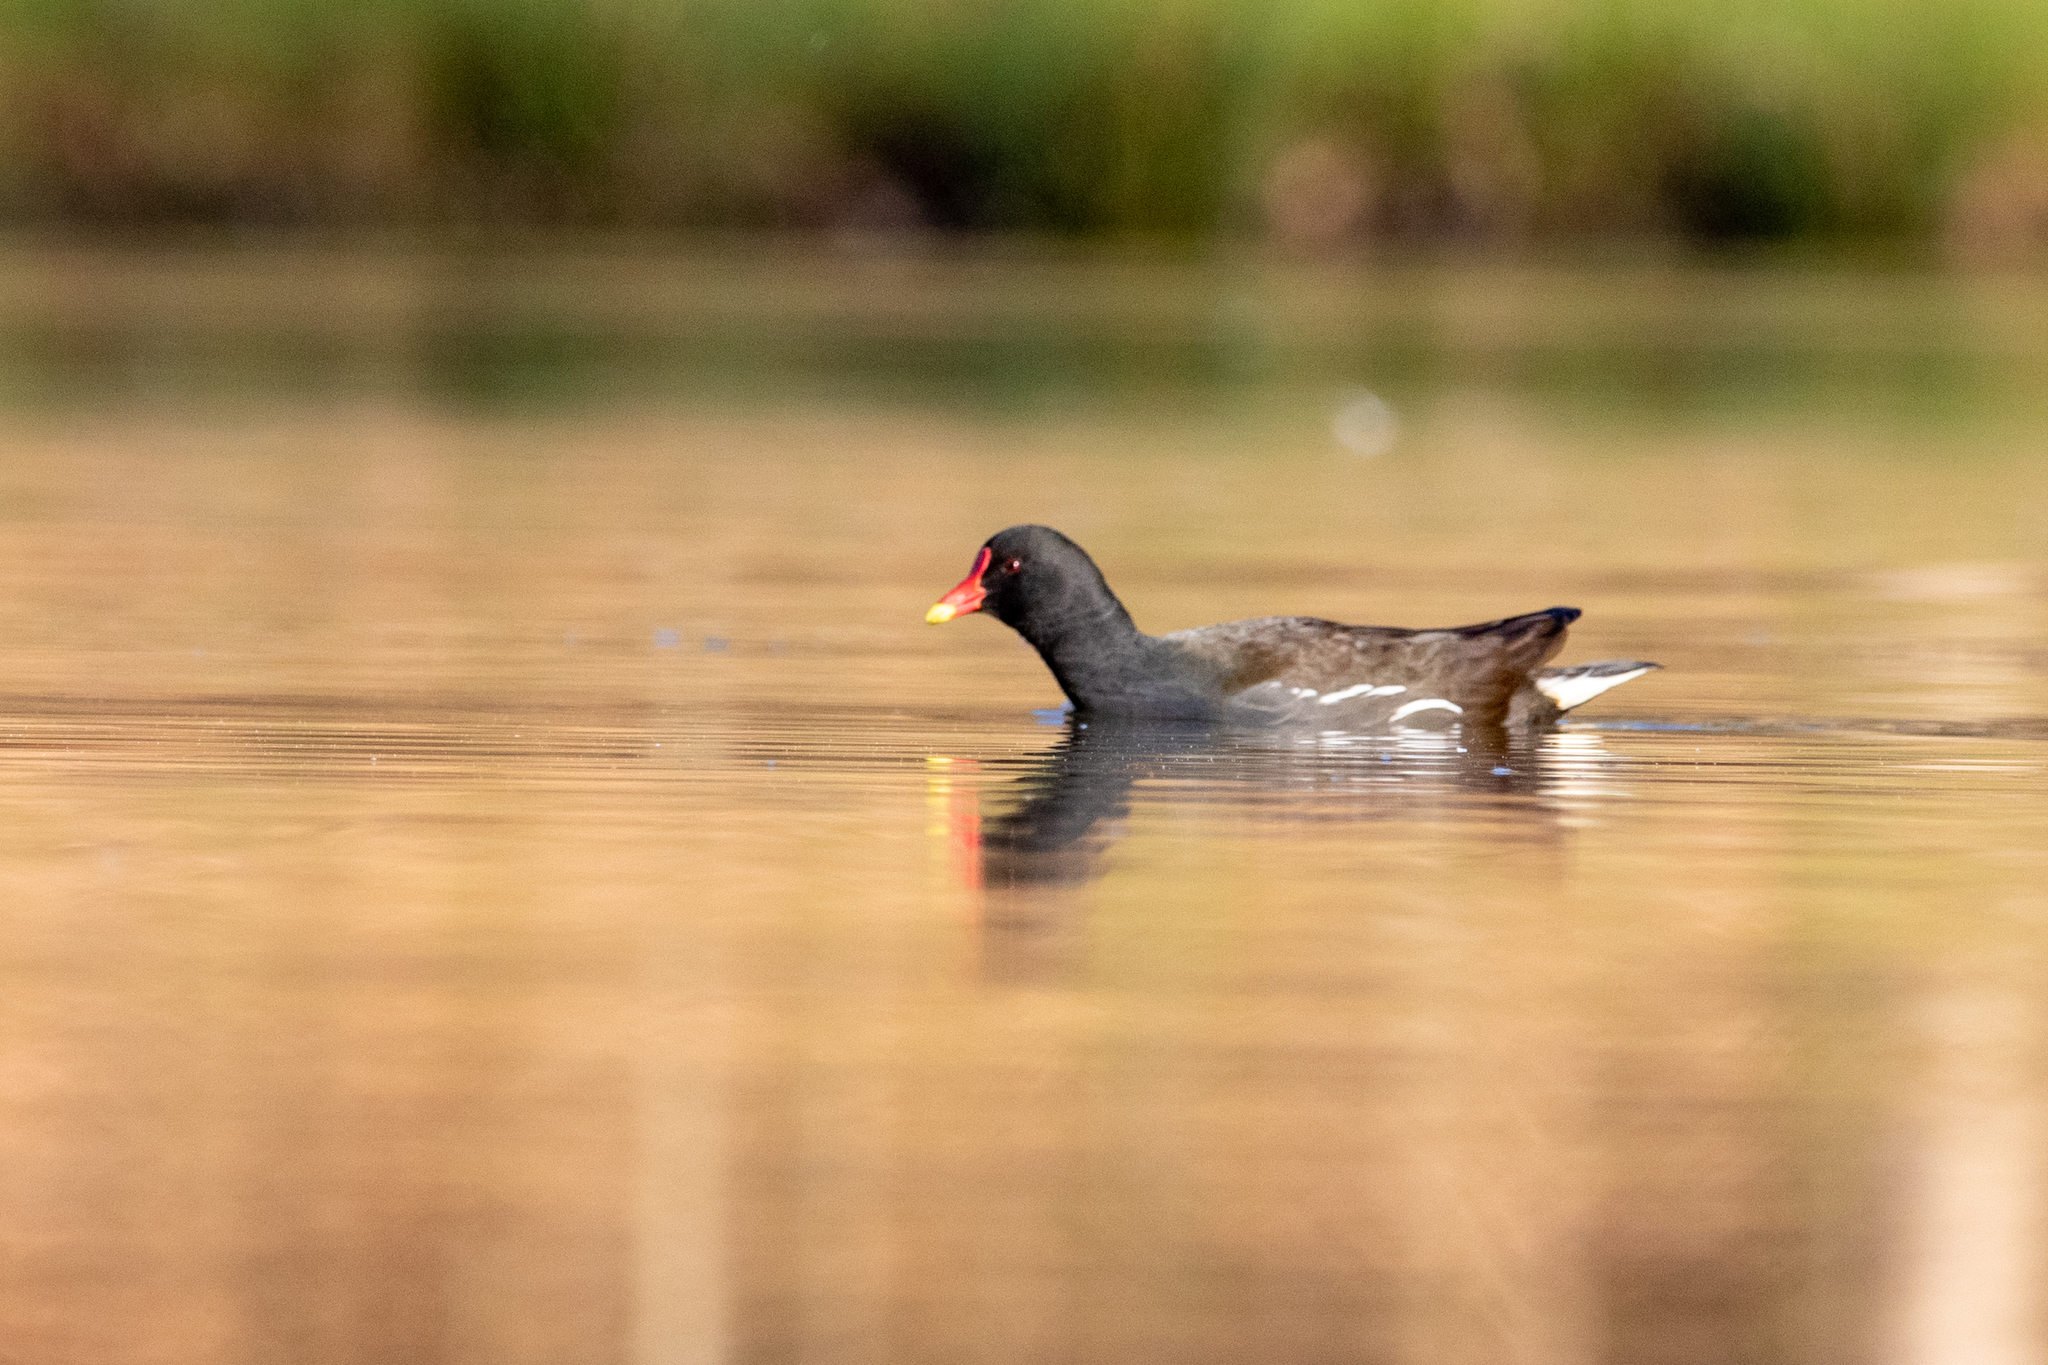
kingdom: Animalia
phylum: Chordata
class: Aves
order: Gruiformes
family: Rallidae
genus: Gallinula
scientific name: Gallinula chloropus
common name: Common moorhen
